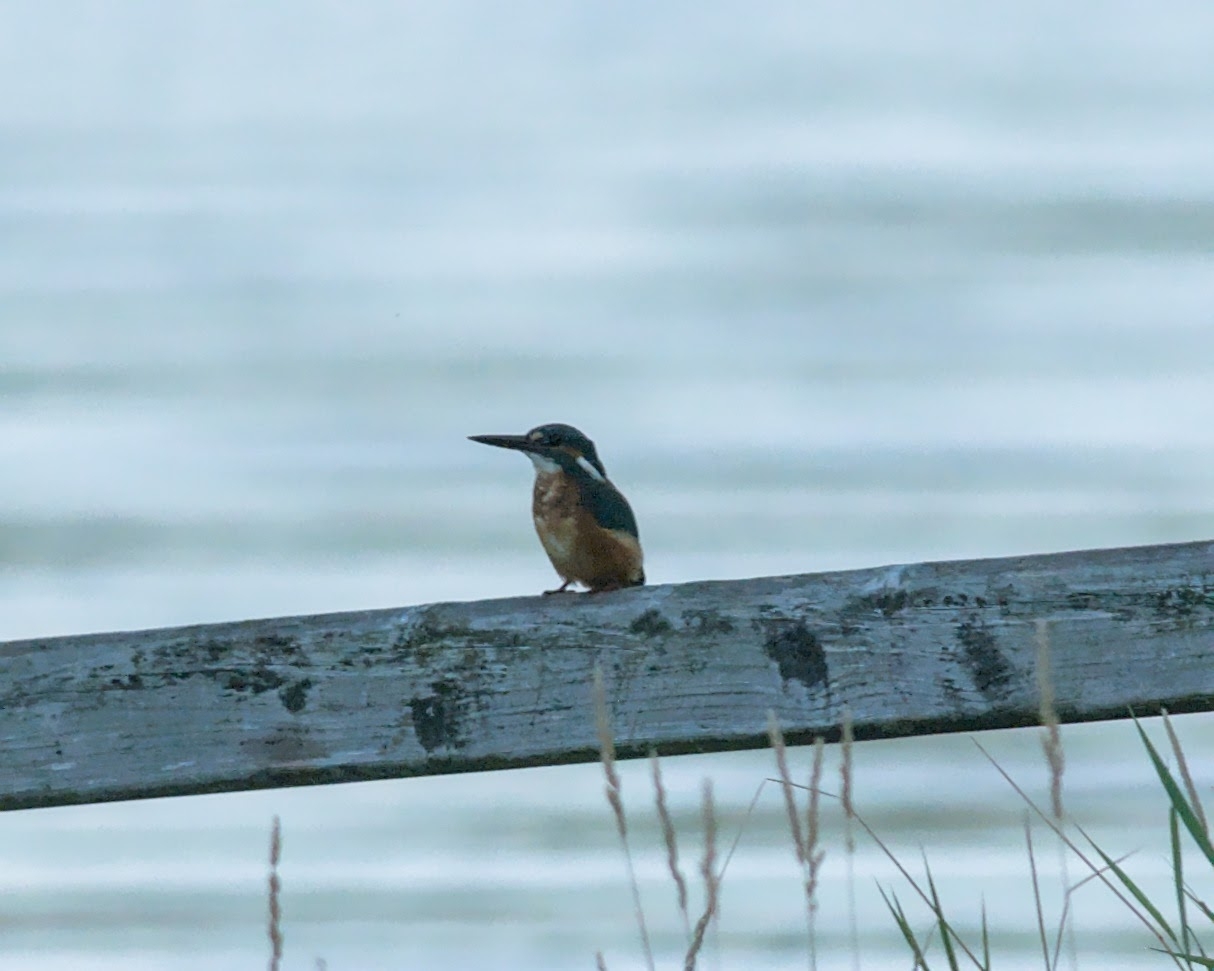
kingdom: Animalia
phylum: Chordata
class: Aves
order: Coraciiformes
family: Alcedinidae
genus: Alcedo
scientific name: Alcedo atthis
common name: Common kingfisher
